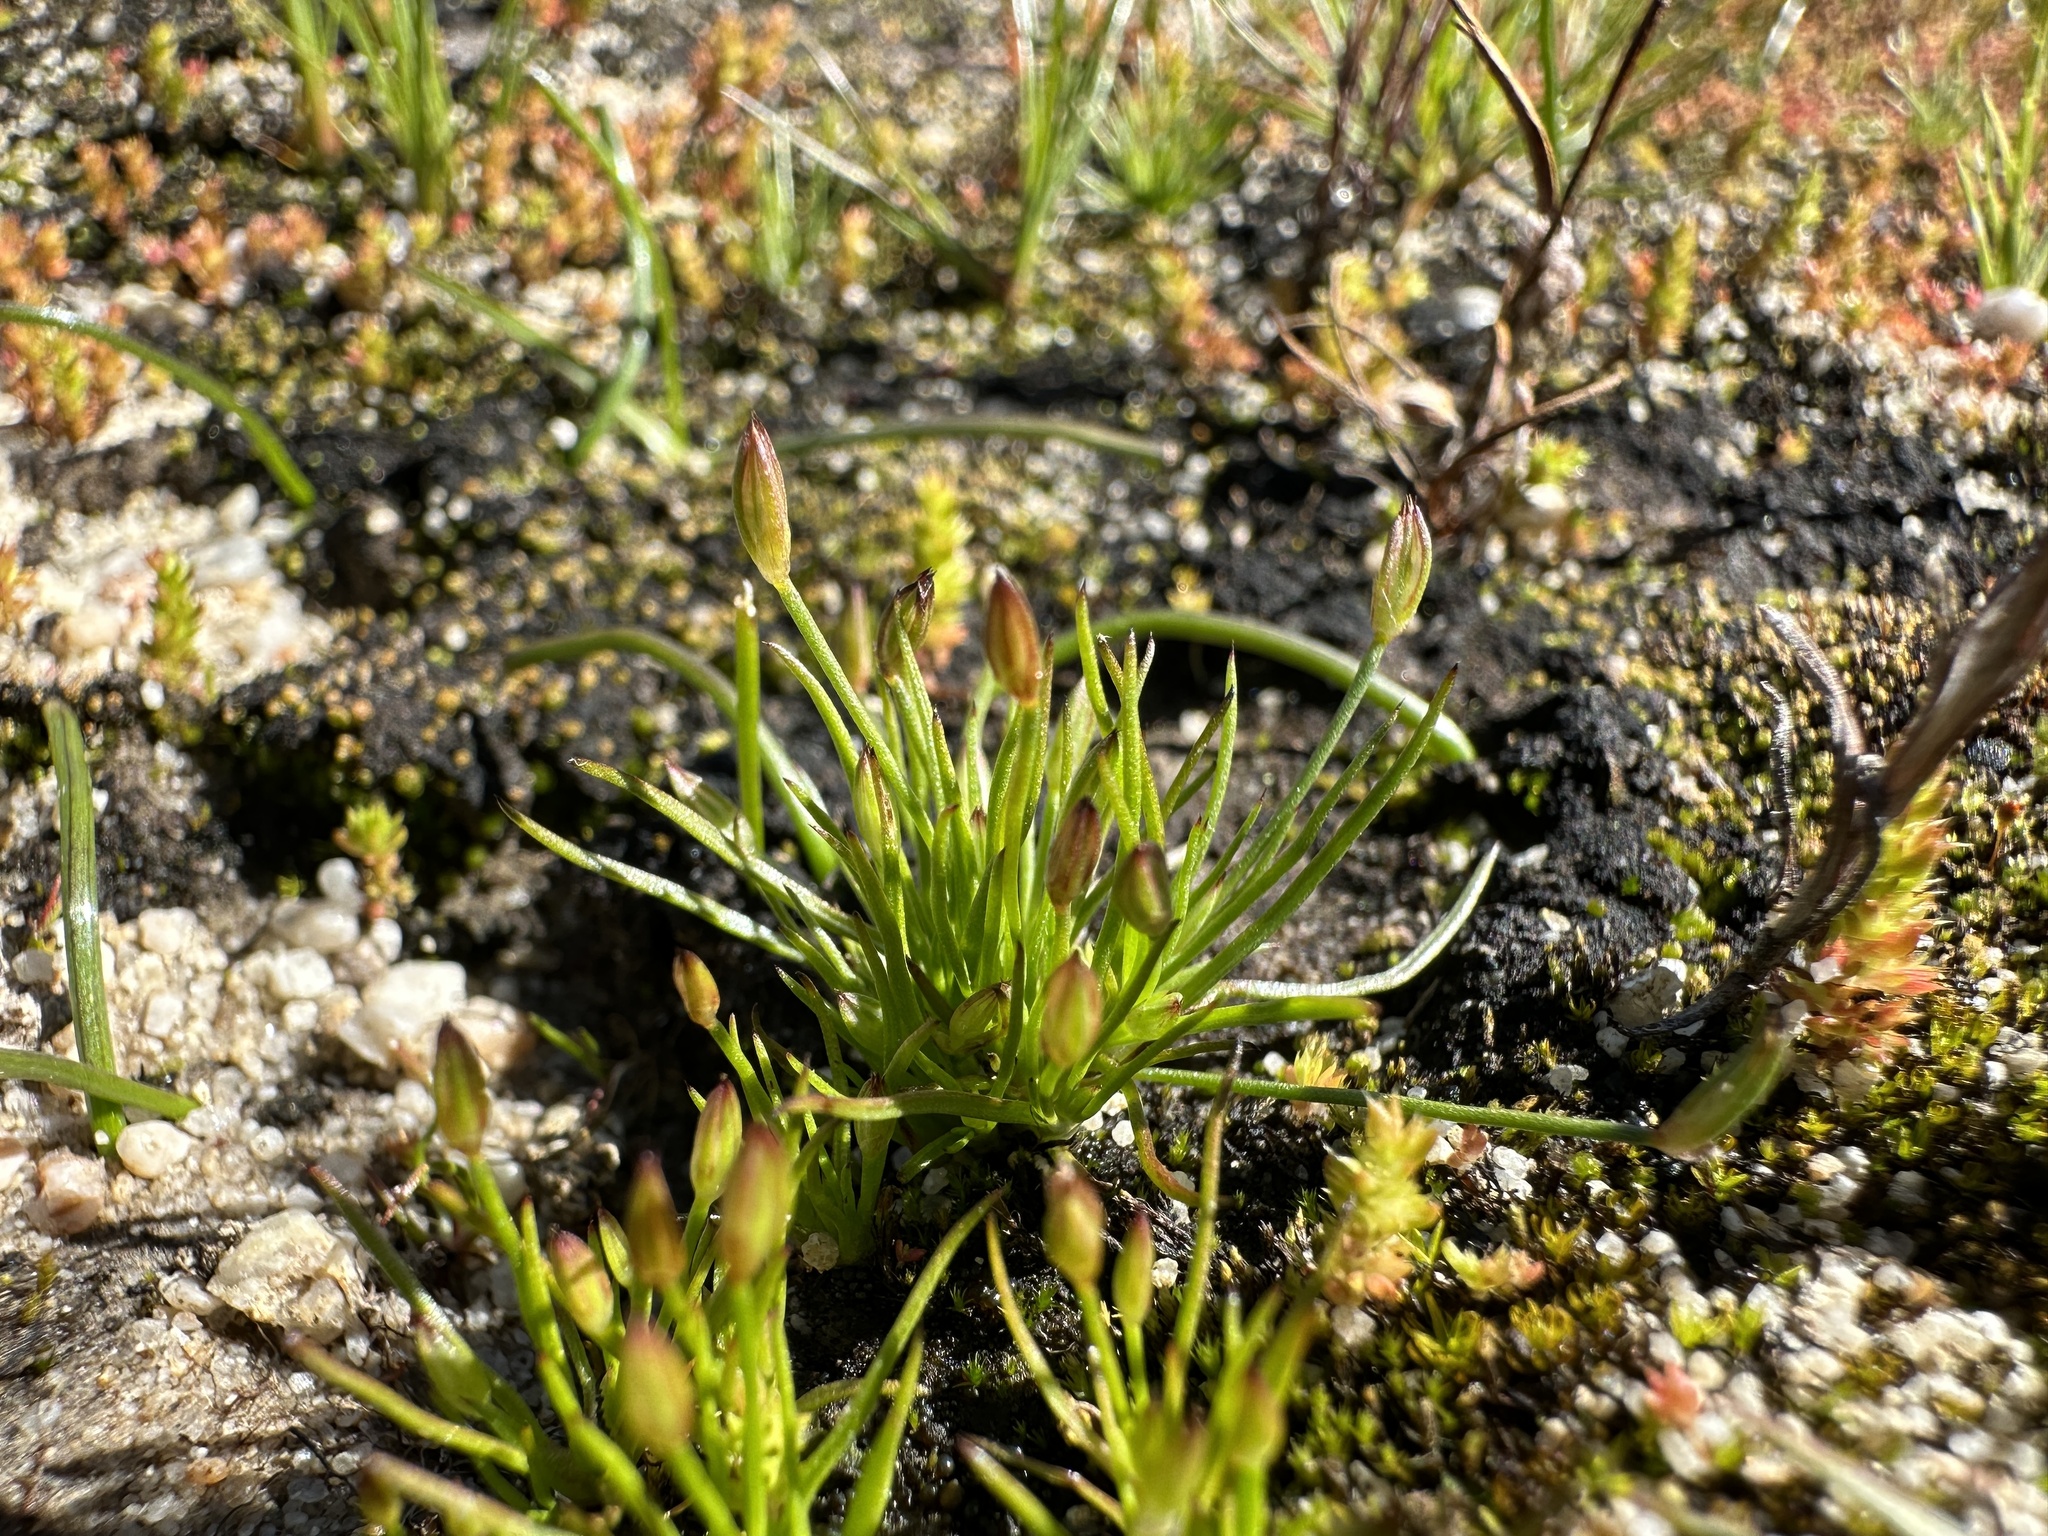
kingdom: Plantae
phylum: Tracheophyta
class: Liliopsida
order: Poales
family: Juncaceae
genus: Juncus
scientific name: Juncus luciensis
